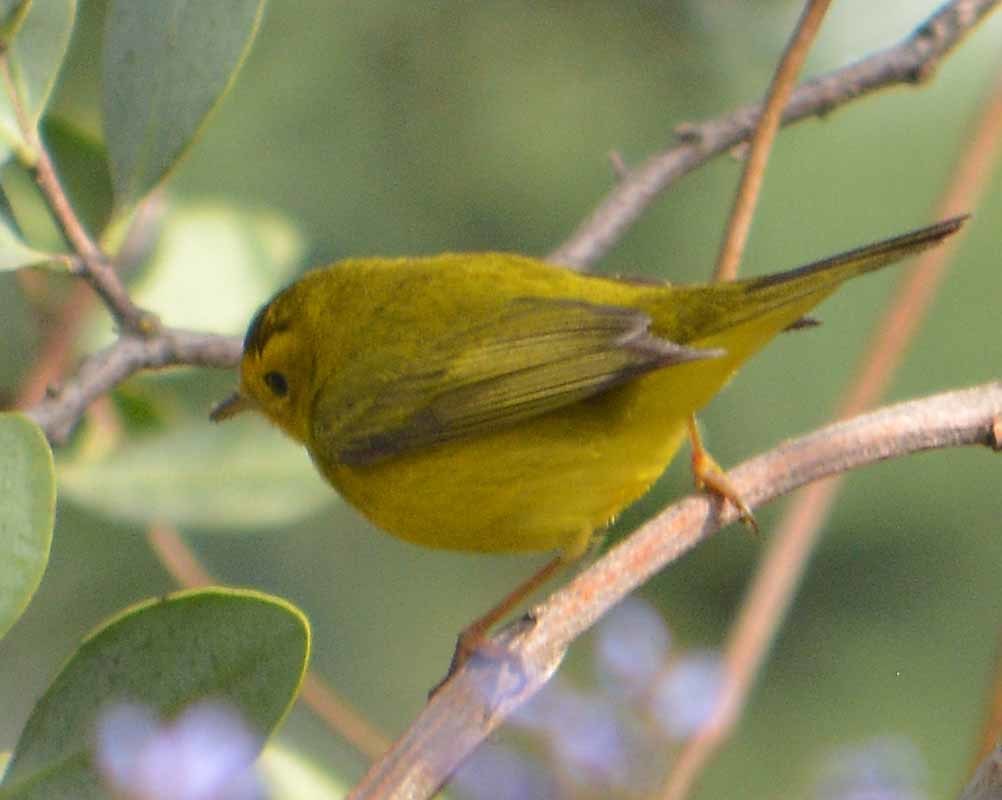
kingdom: Animalia
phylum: Chordata
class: Aves
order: Passeriformes
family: Parulidae
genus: Cardellina
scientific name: Cardellina pusilla
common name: Wilson's warbler
